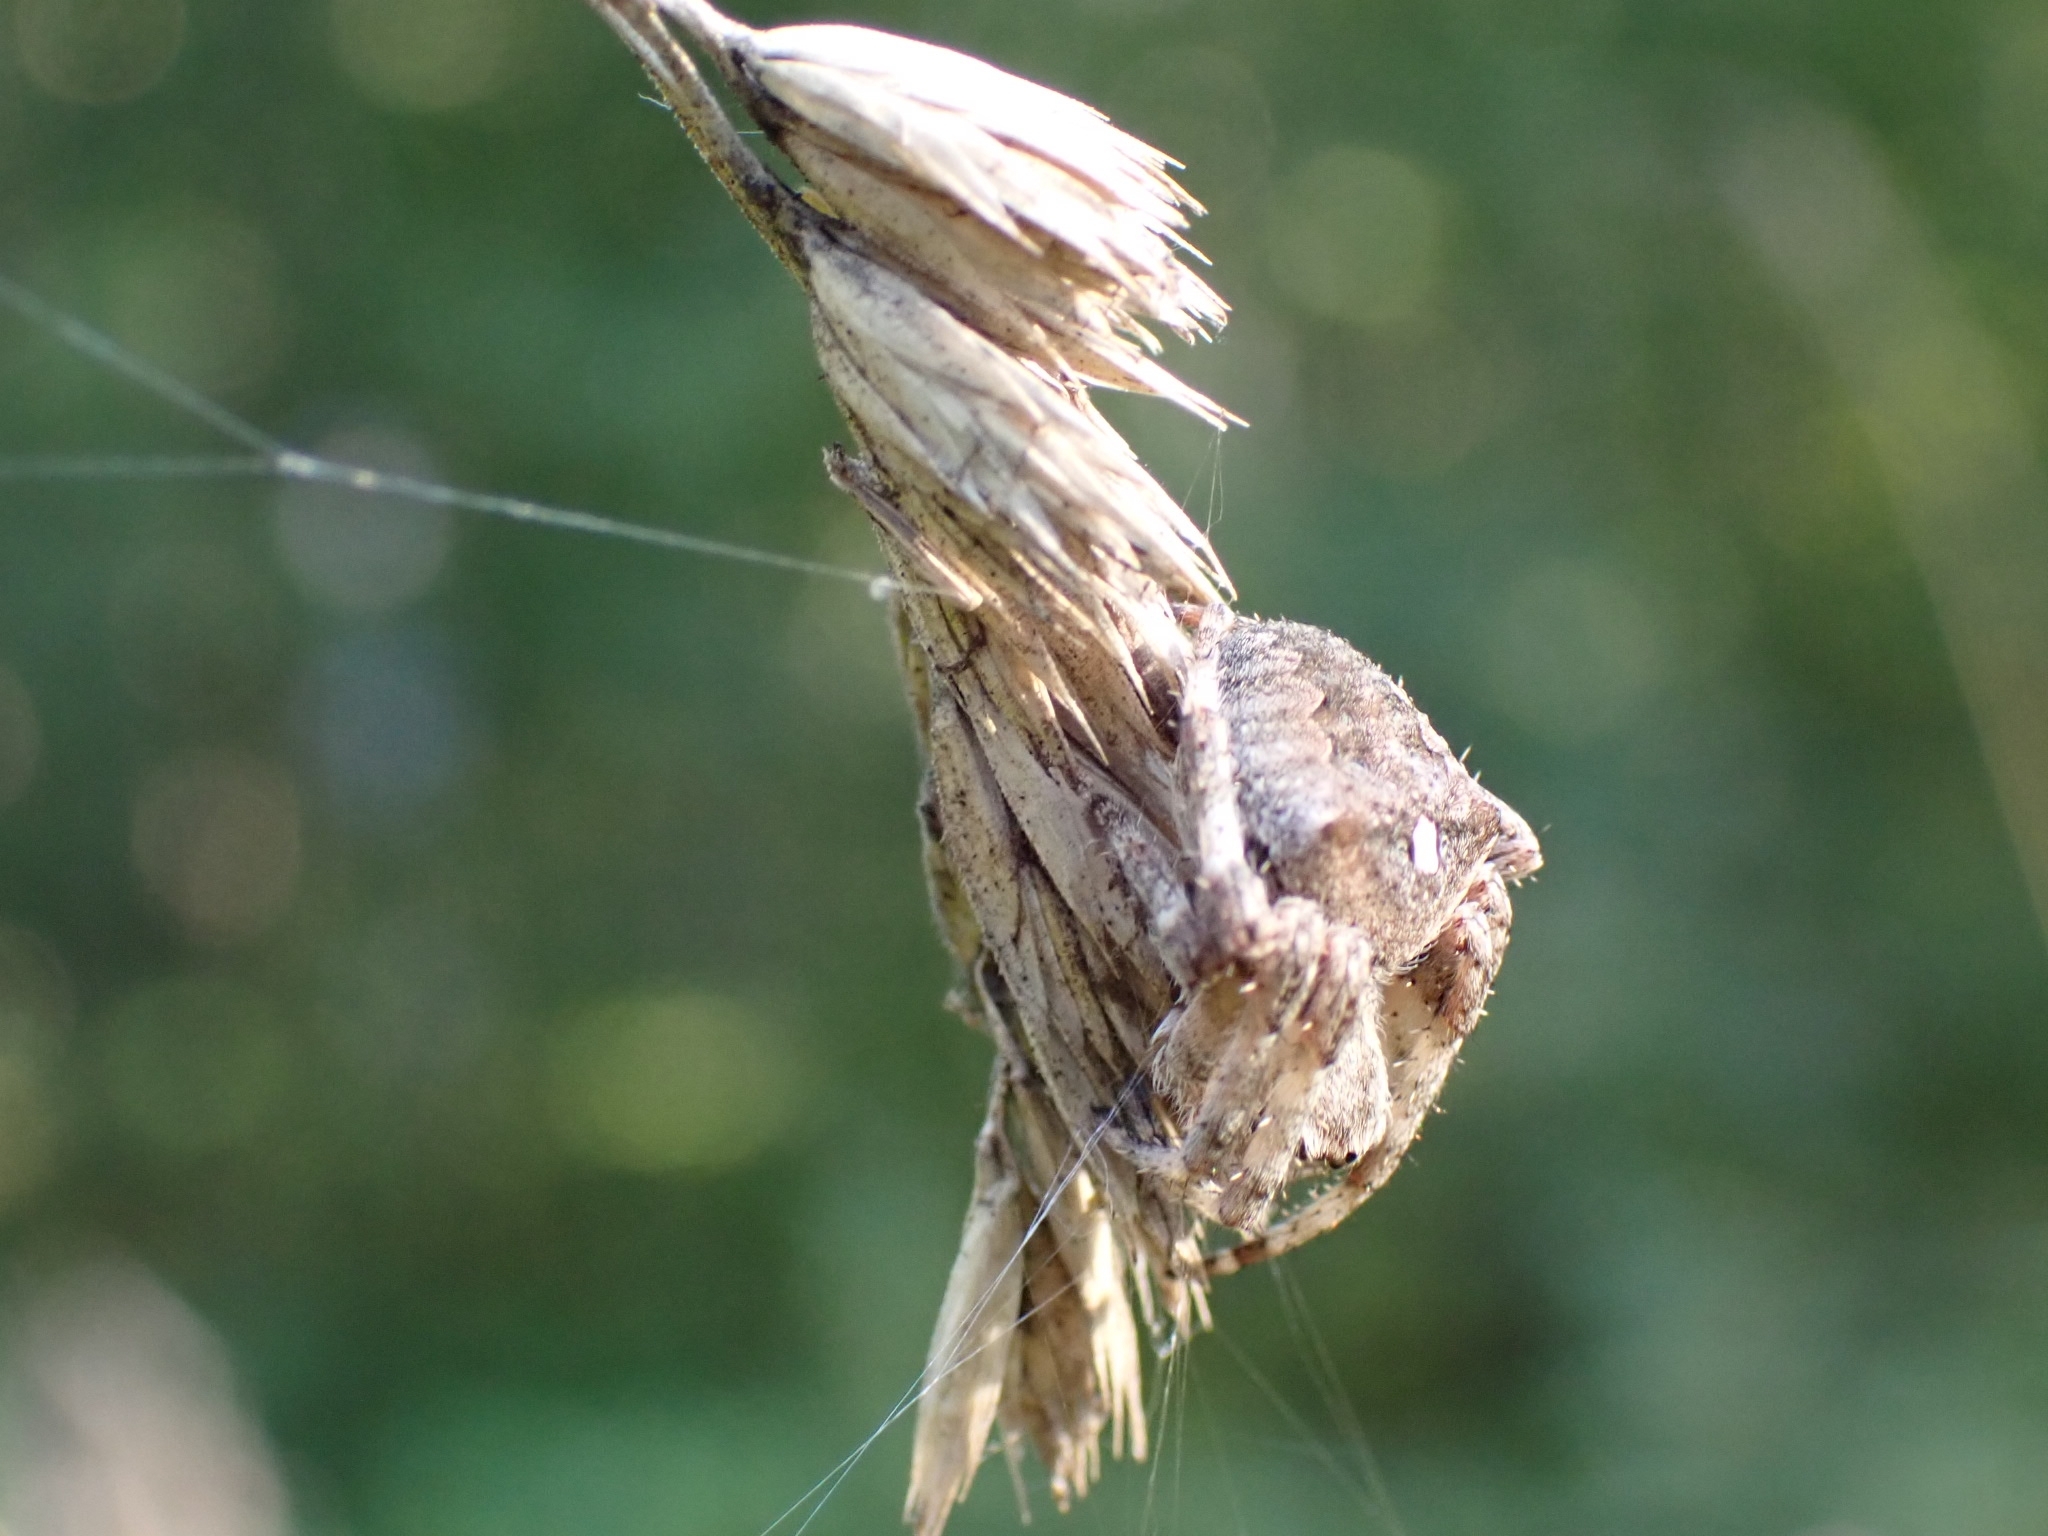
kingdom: Animalia
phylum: Arthropoda
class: Arachnida
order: Araneae
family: Araneidae
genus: Araneus
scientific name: Araneus angulatus
